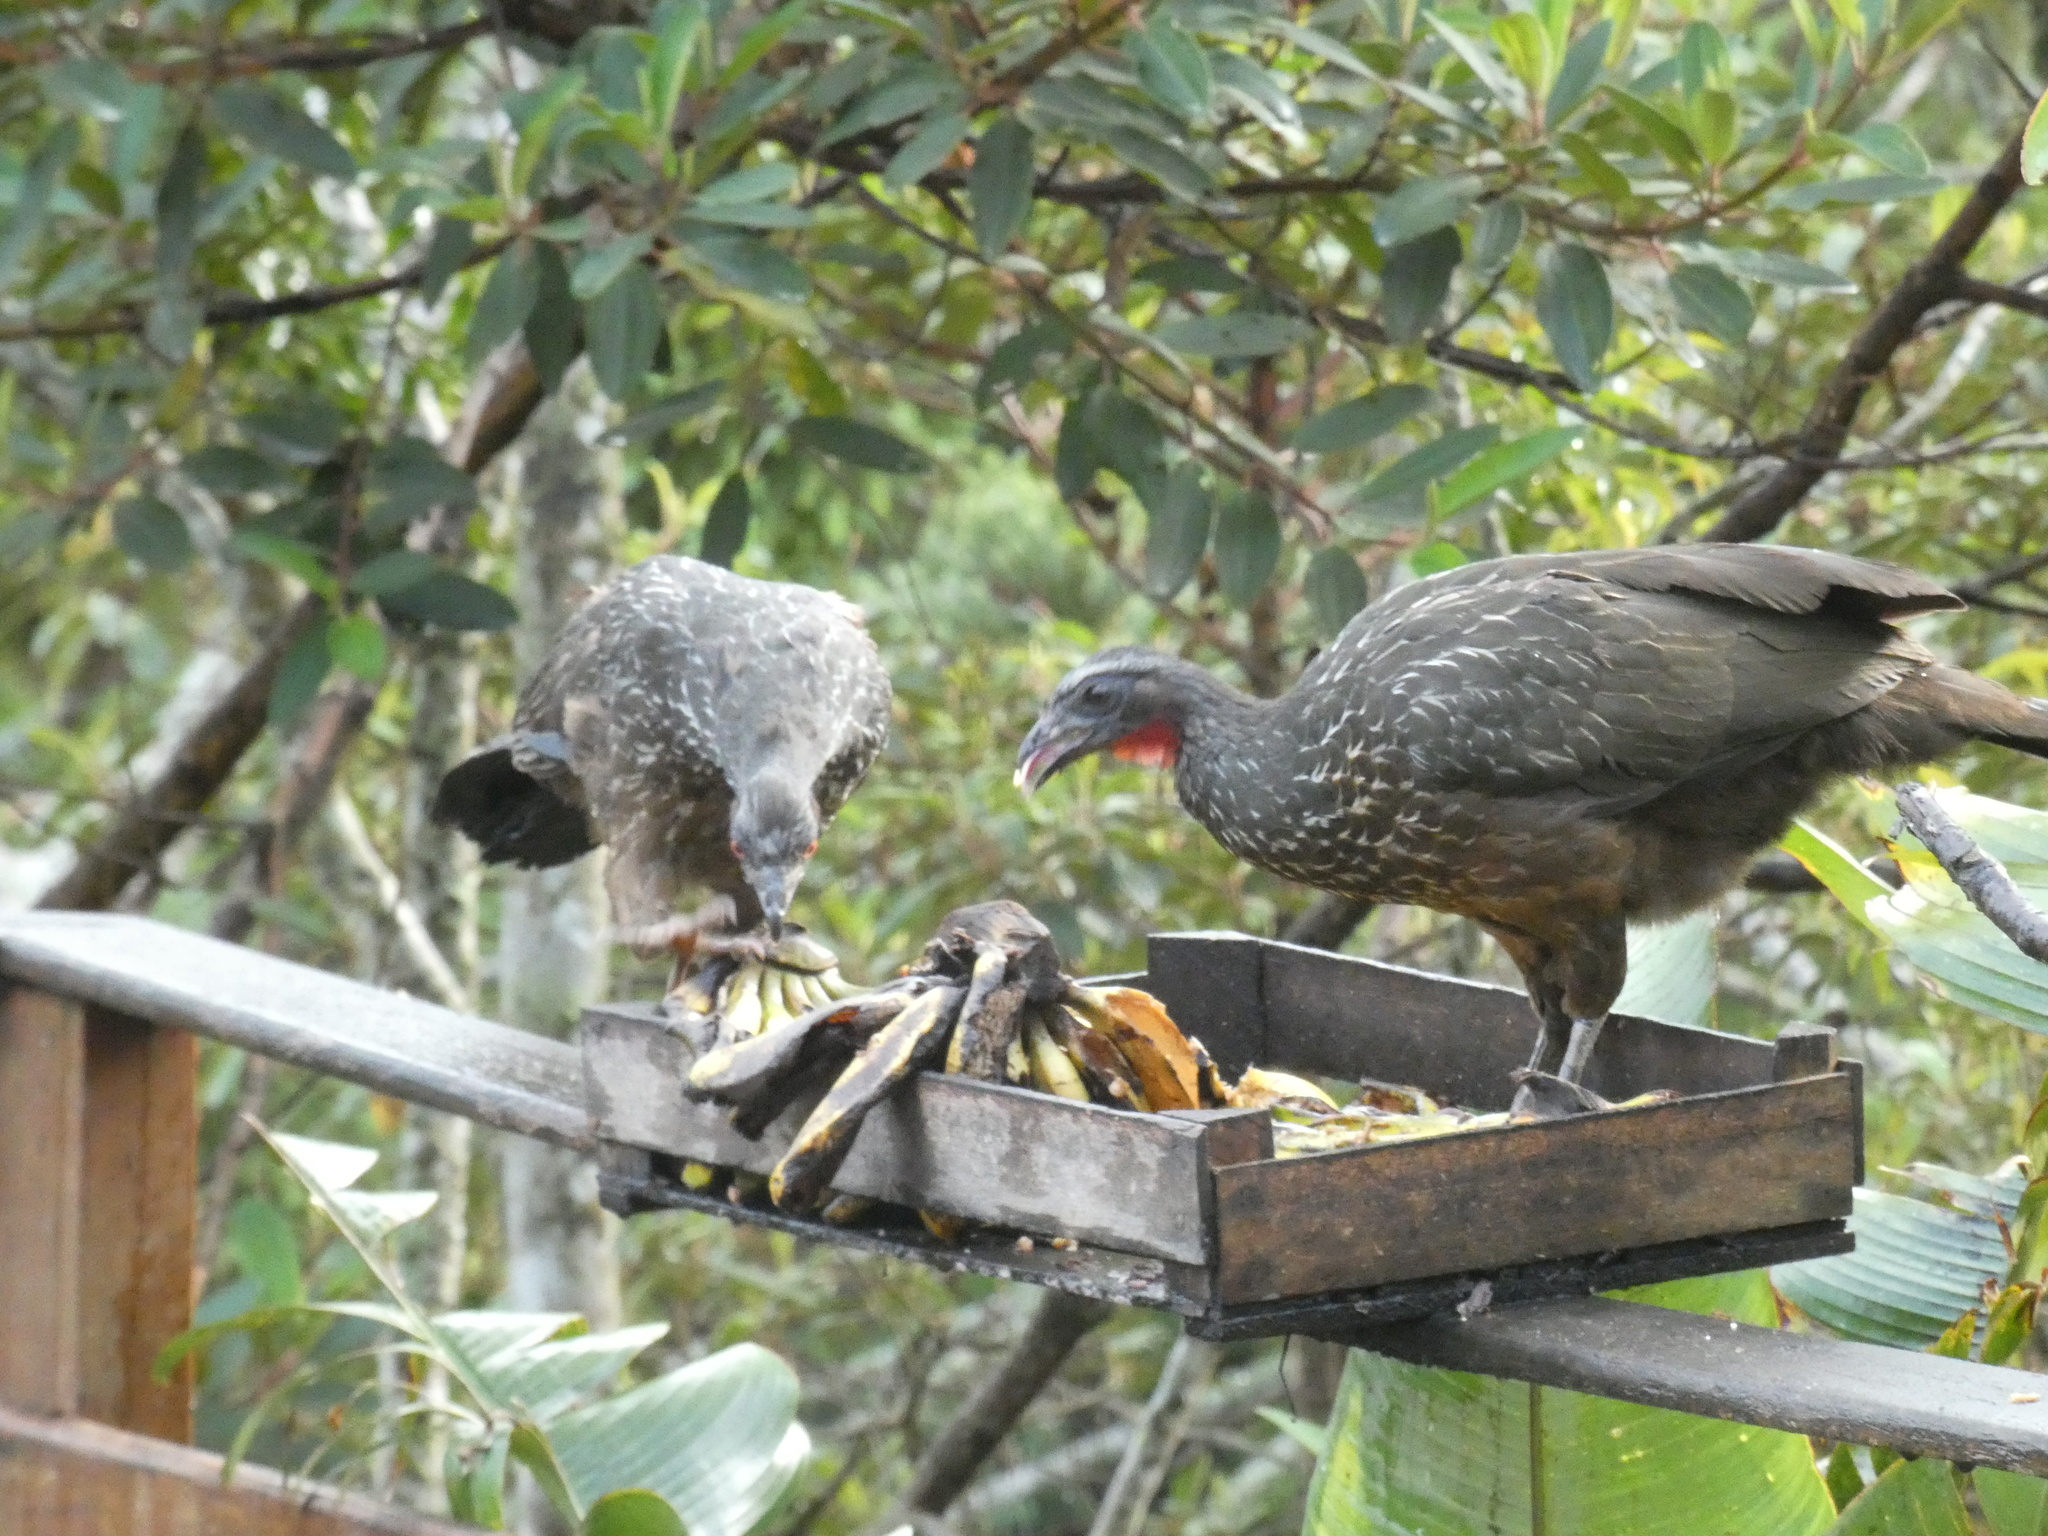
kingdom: Animalia
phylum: Chordata
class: Aves
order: Galliformes
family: Cracidae
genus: Penelope
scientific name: Penelope obscura
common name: Dusky-legged guan
